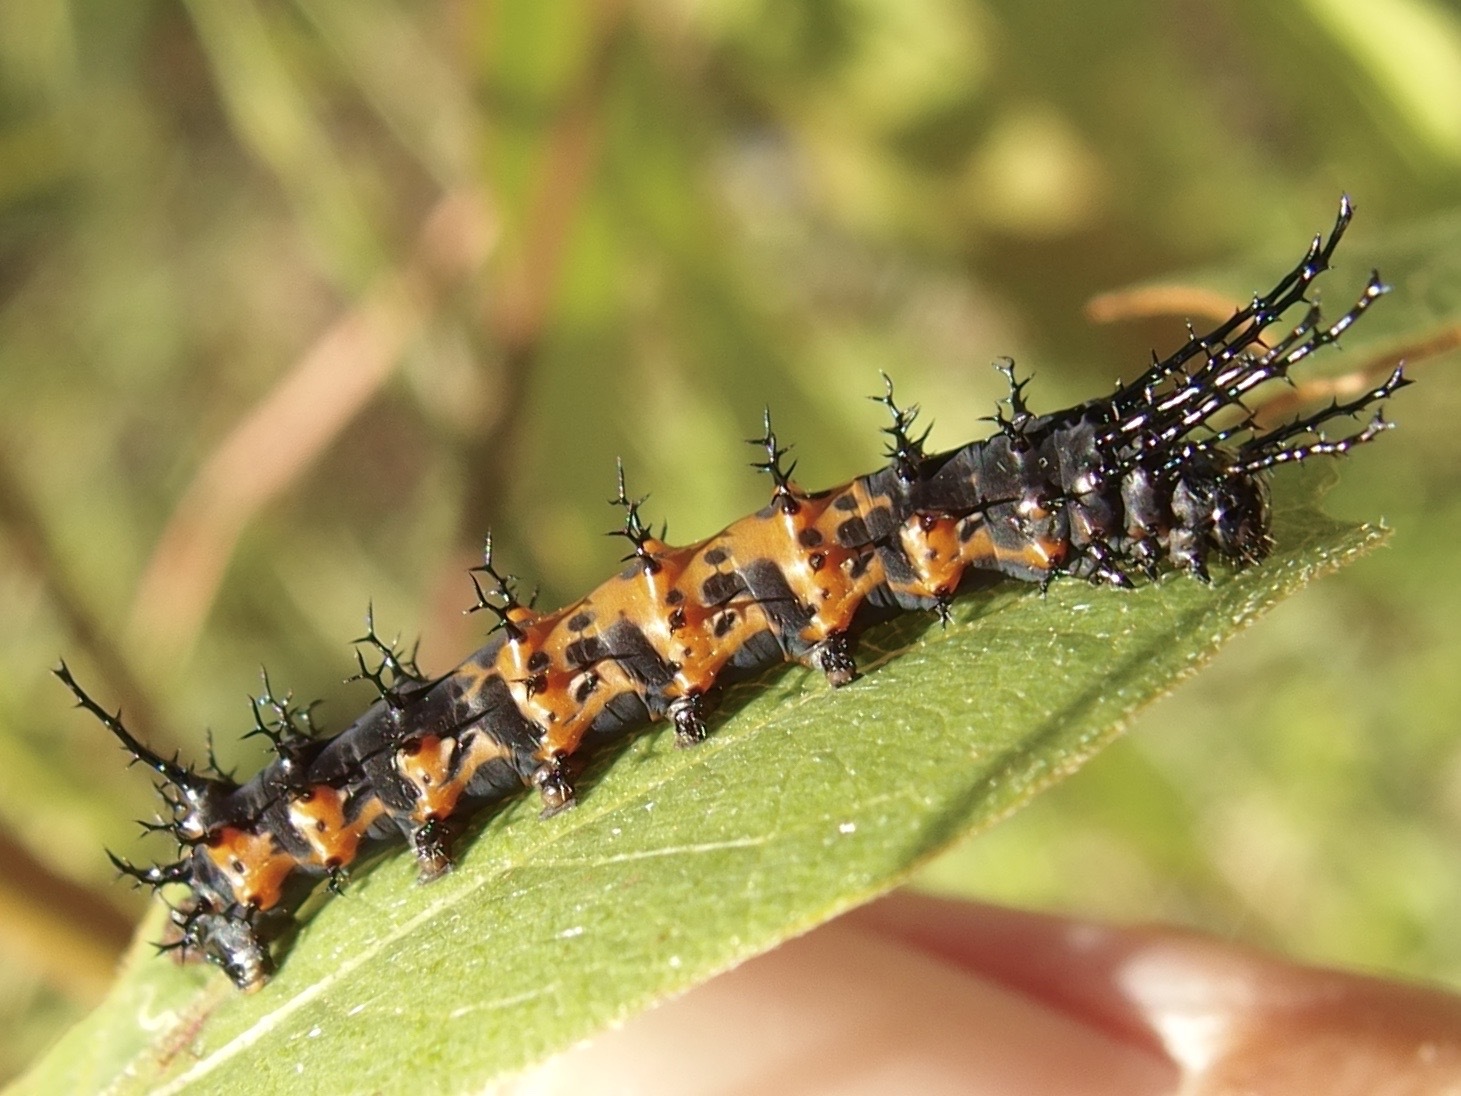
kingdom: Animalia
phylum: Arthropoda
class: Insecta
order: Lepidoptera
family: Saturniidae
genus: Citheronia
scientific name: Citheronia splendens
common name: Splendid royal moth
